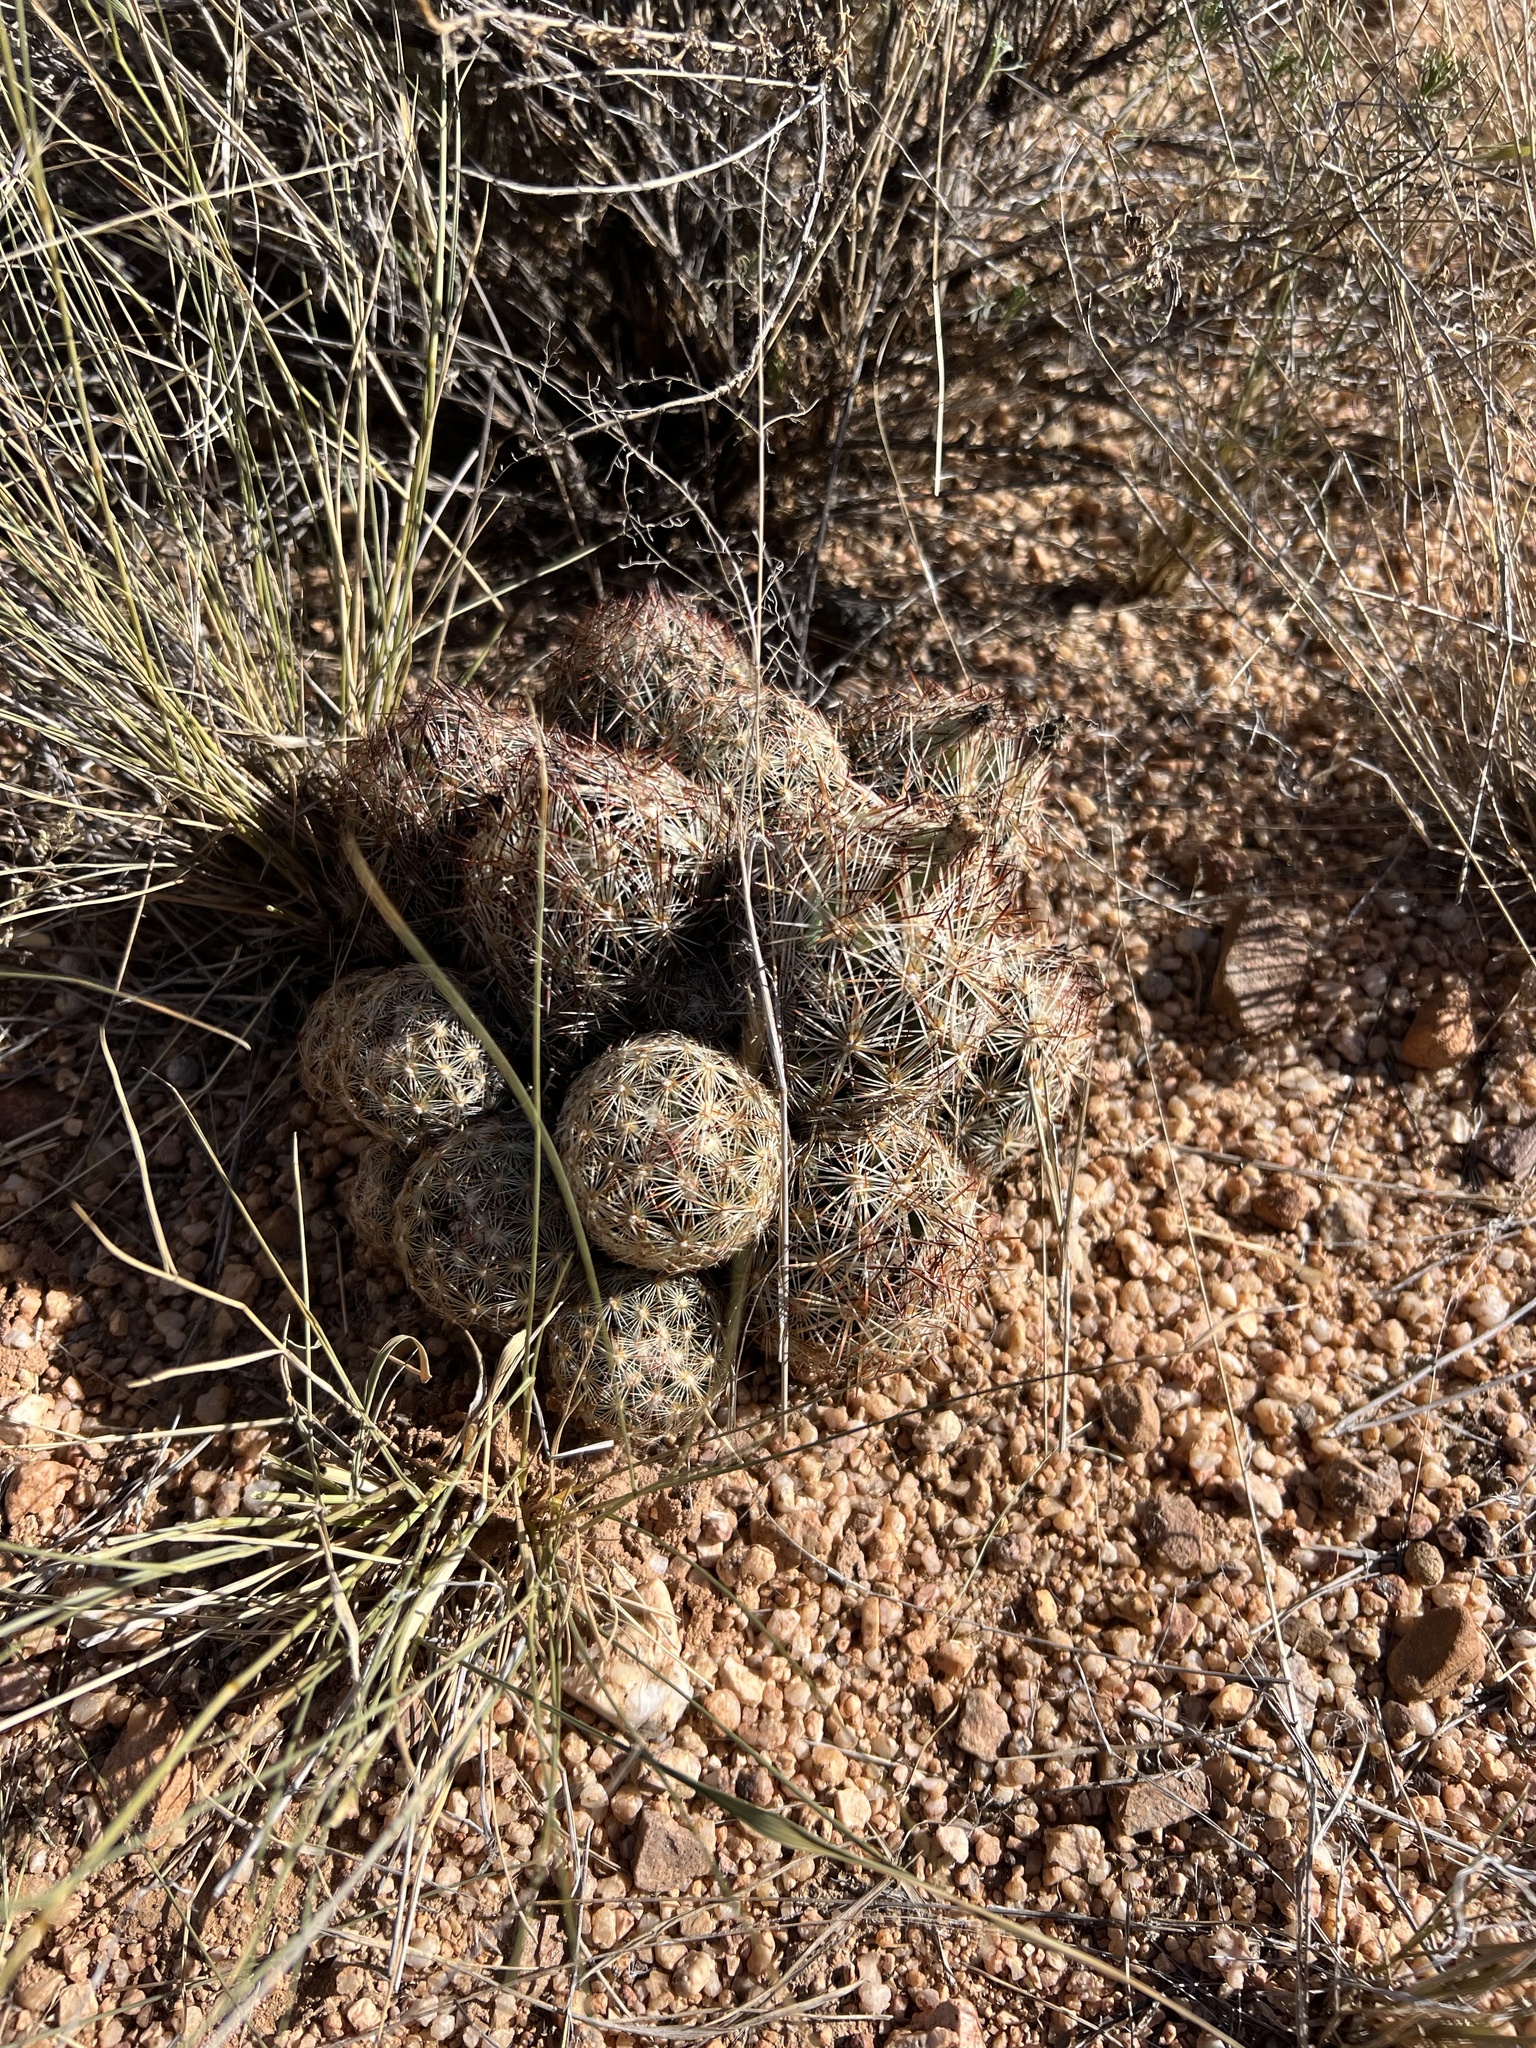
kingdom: Plantae
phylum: Tracheophyta
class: Magnoliopsida
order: Caryophyllales
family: Cactaceae
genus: Pelecyphora
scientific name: Pelecyphora vivipara
